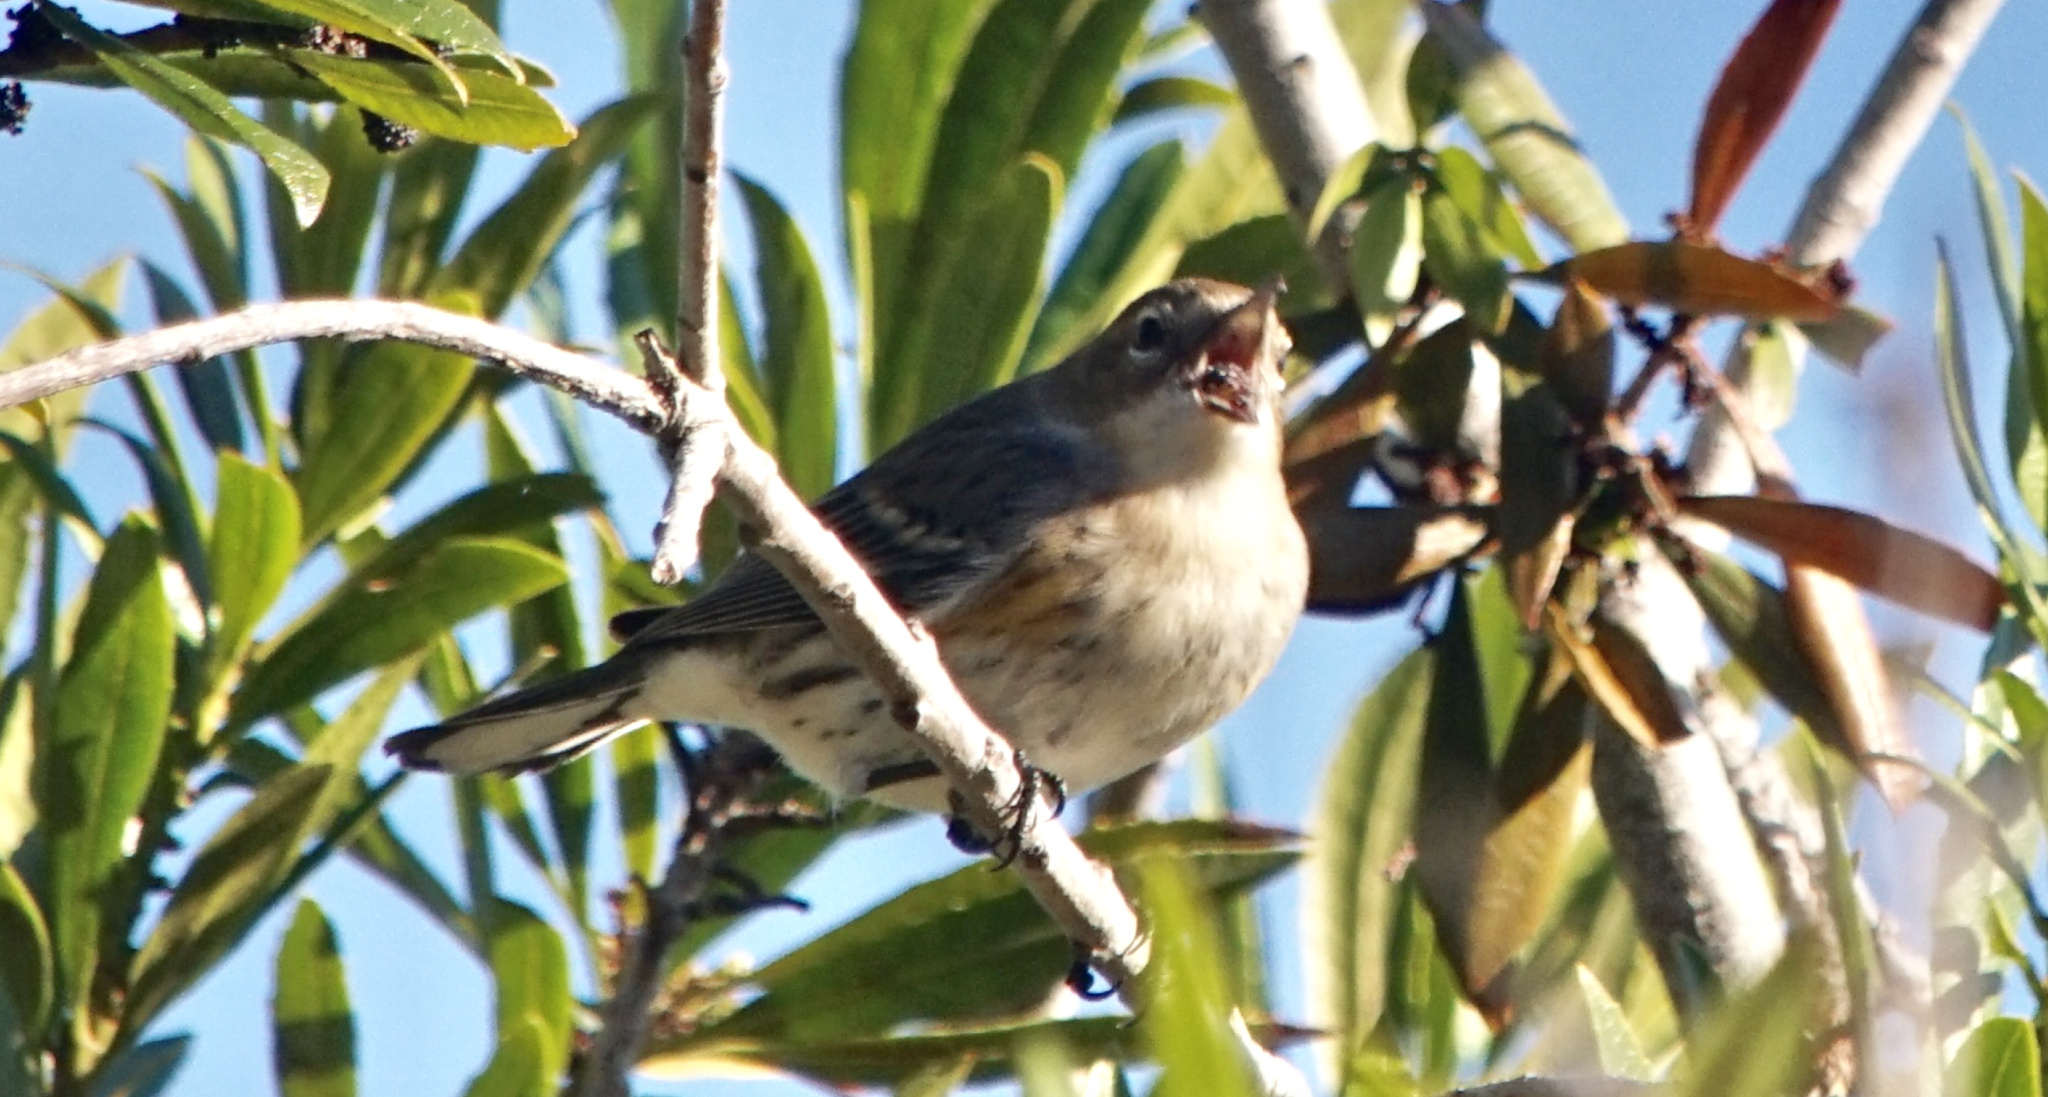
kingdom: Animalia
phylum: Chordata
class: Aves
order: Passeriformes
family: Parulidae
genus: Setophaga
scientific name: Setophaga coronata
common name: Myrtle warbler
